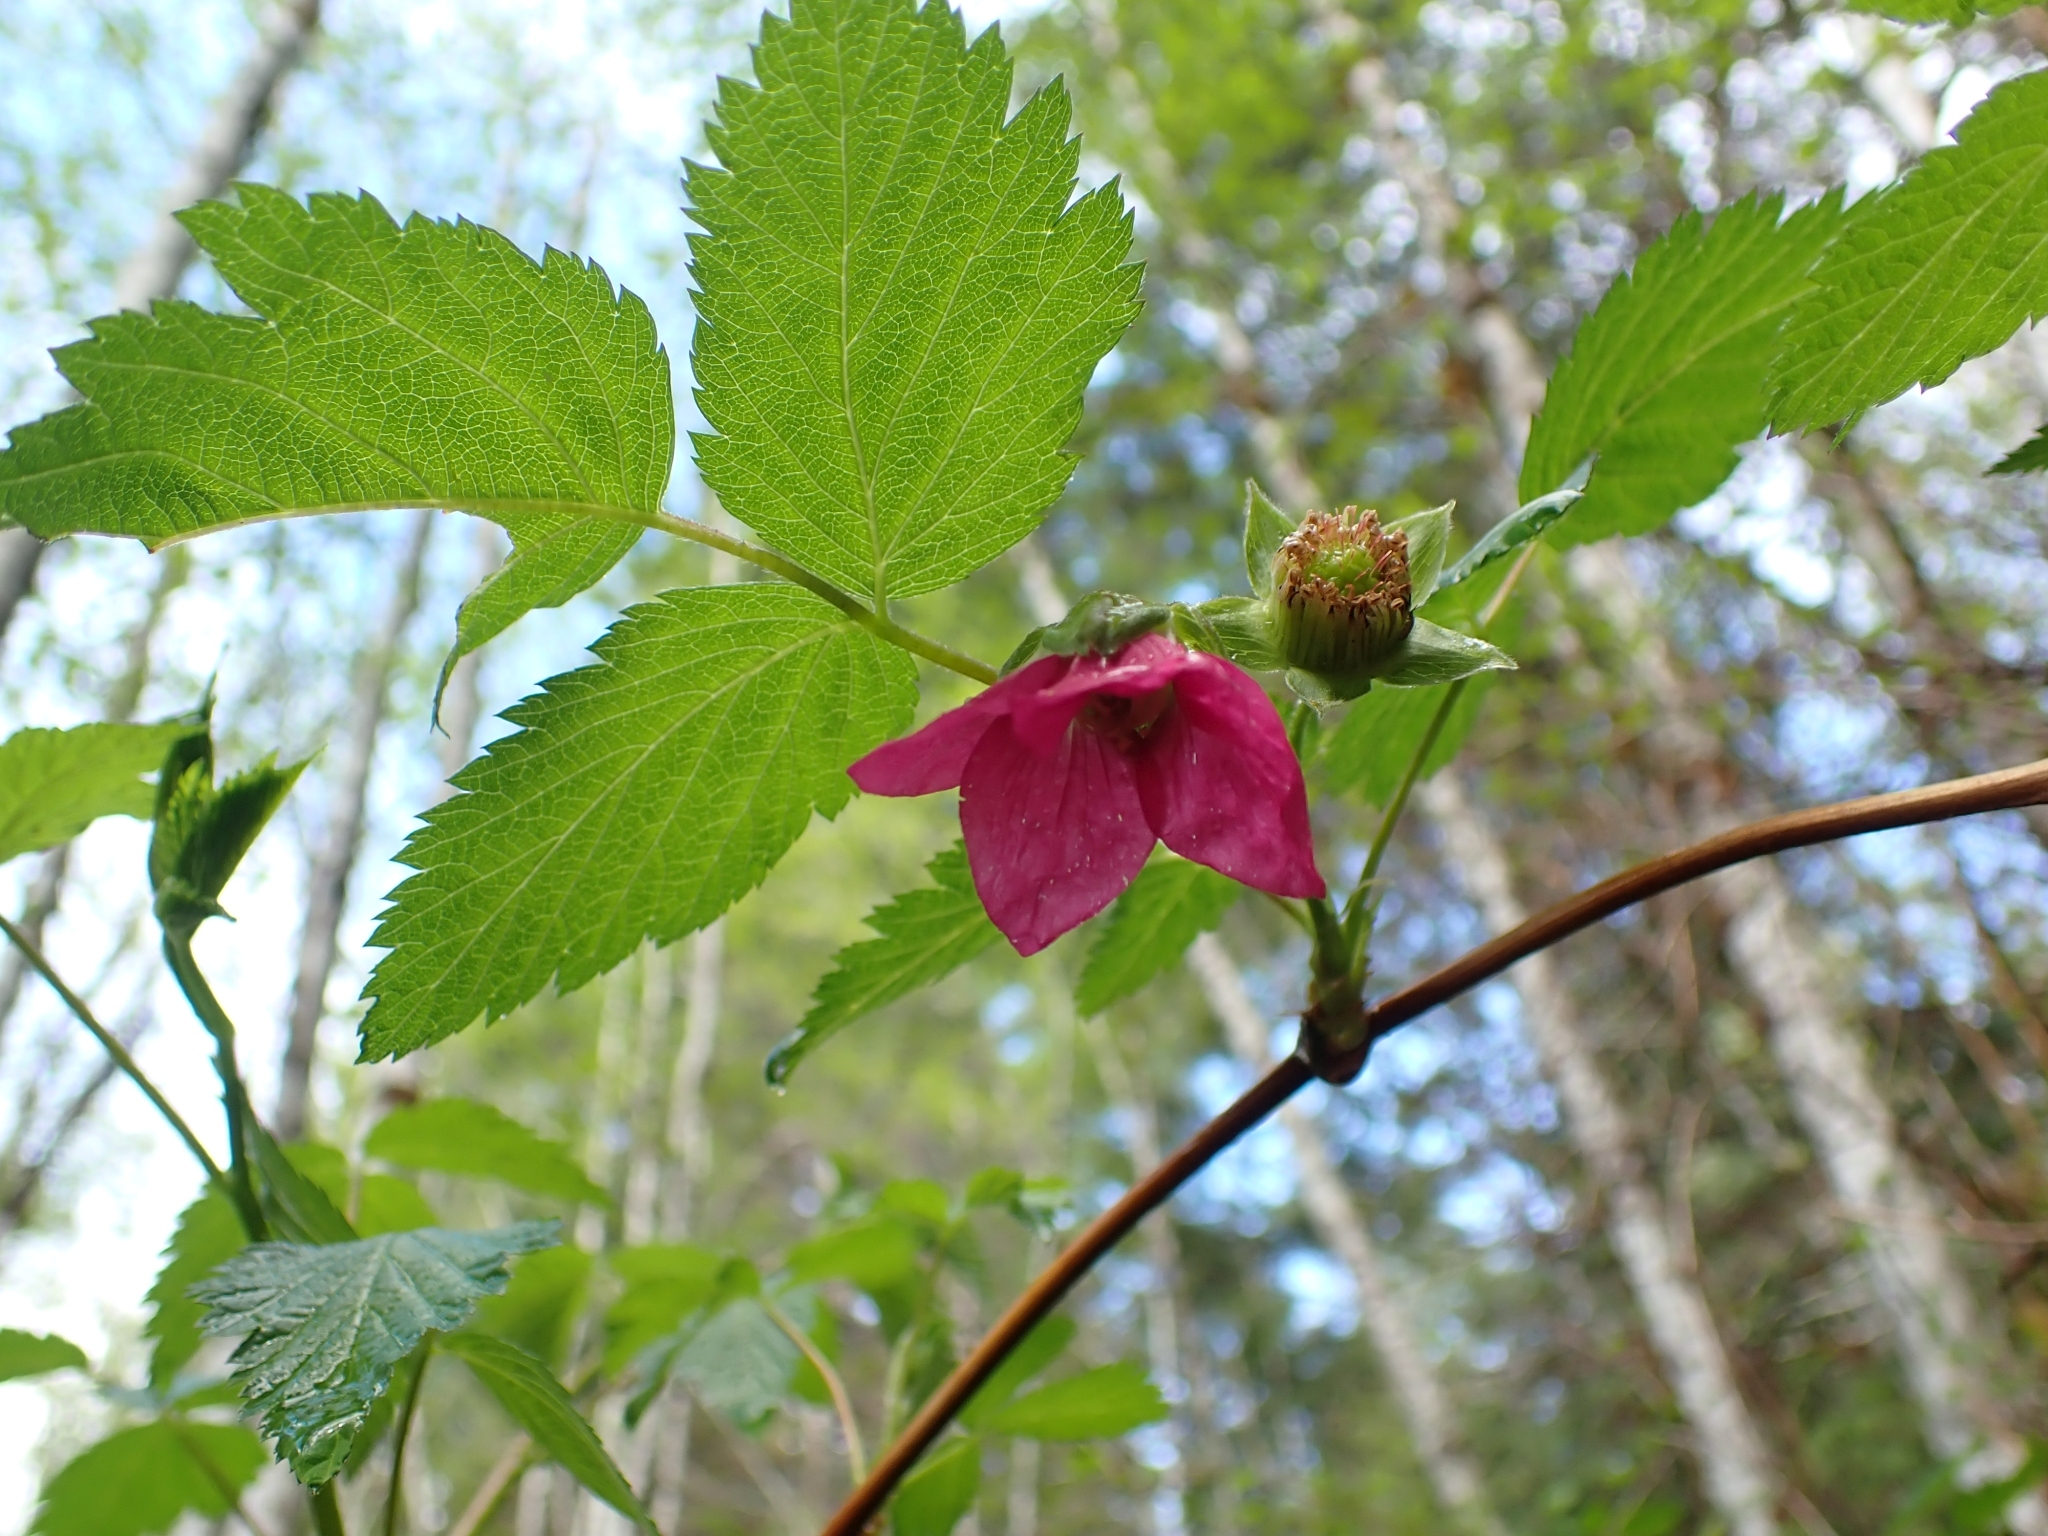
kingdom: Plantae
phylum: Tracheophyta
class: Magnoliopsida
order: Rosales
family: Rosaceae
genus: Rubus
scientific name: Rubus spectabilis
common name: Salmonberry
